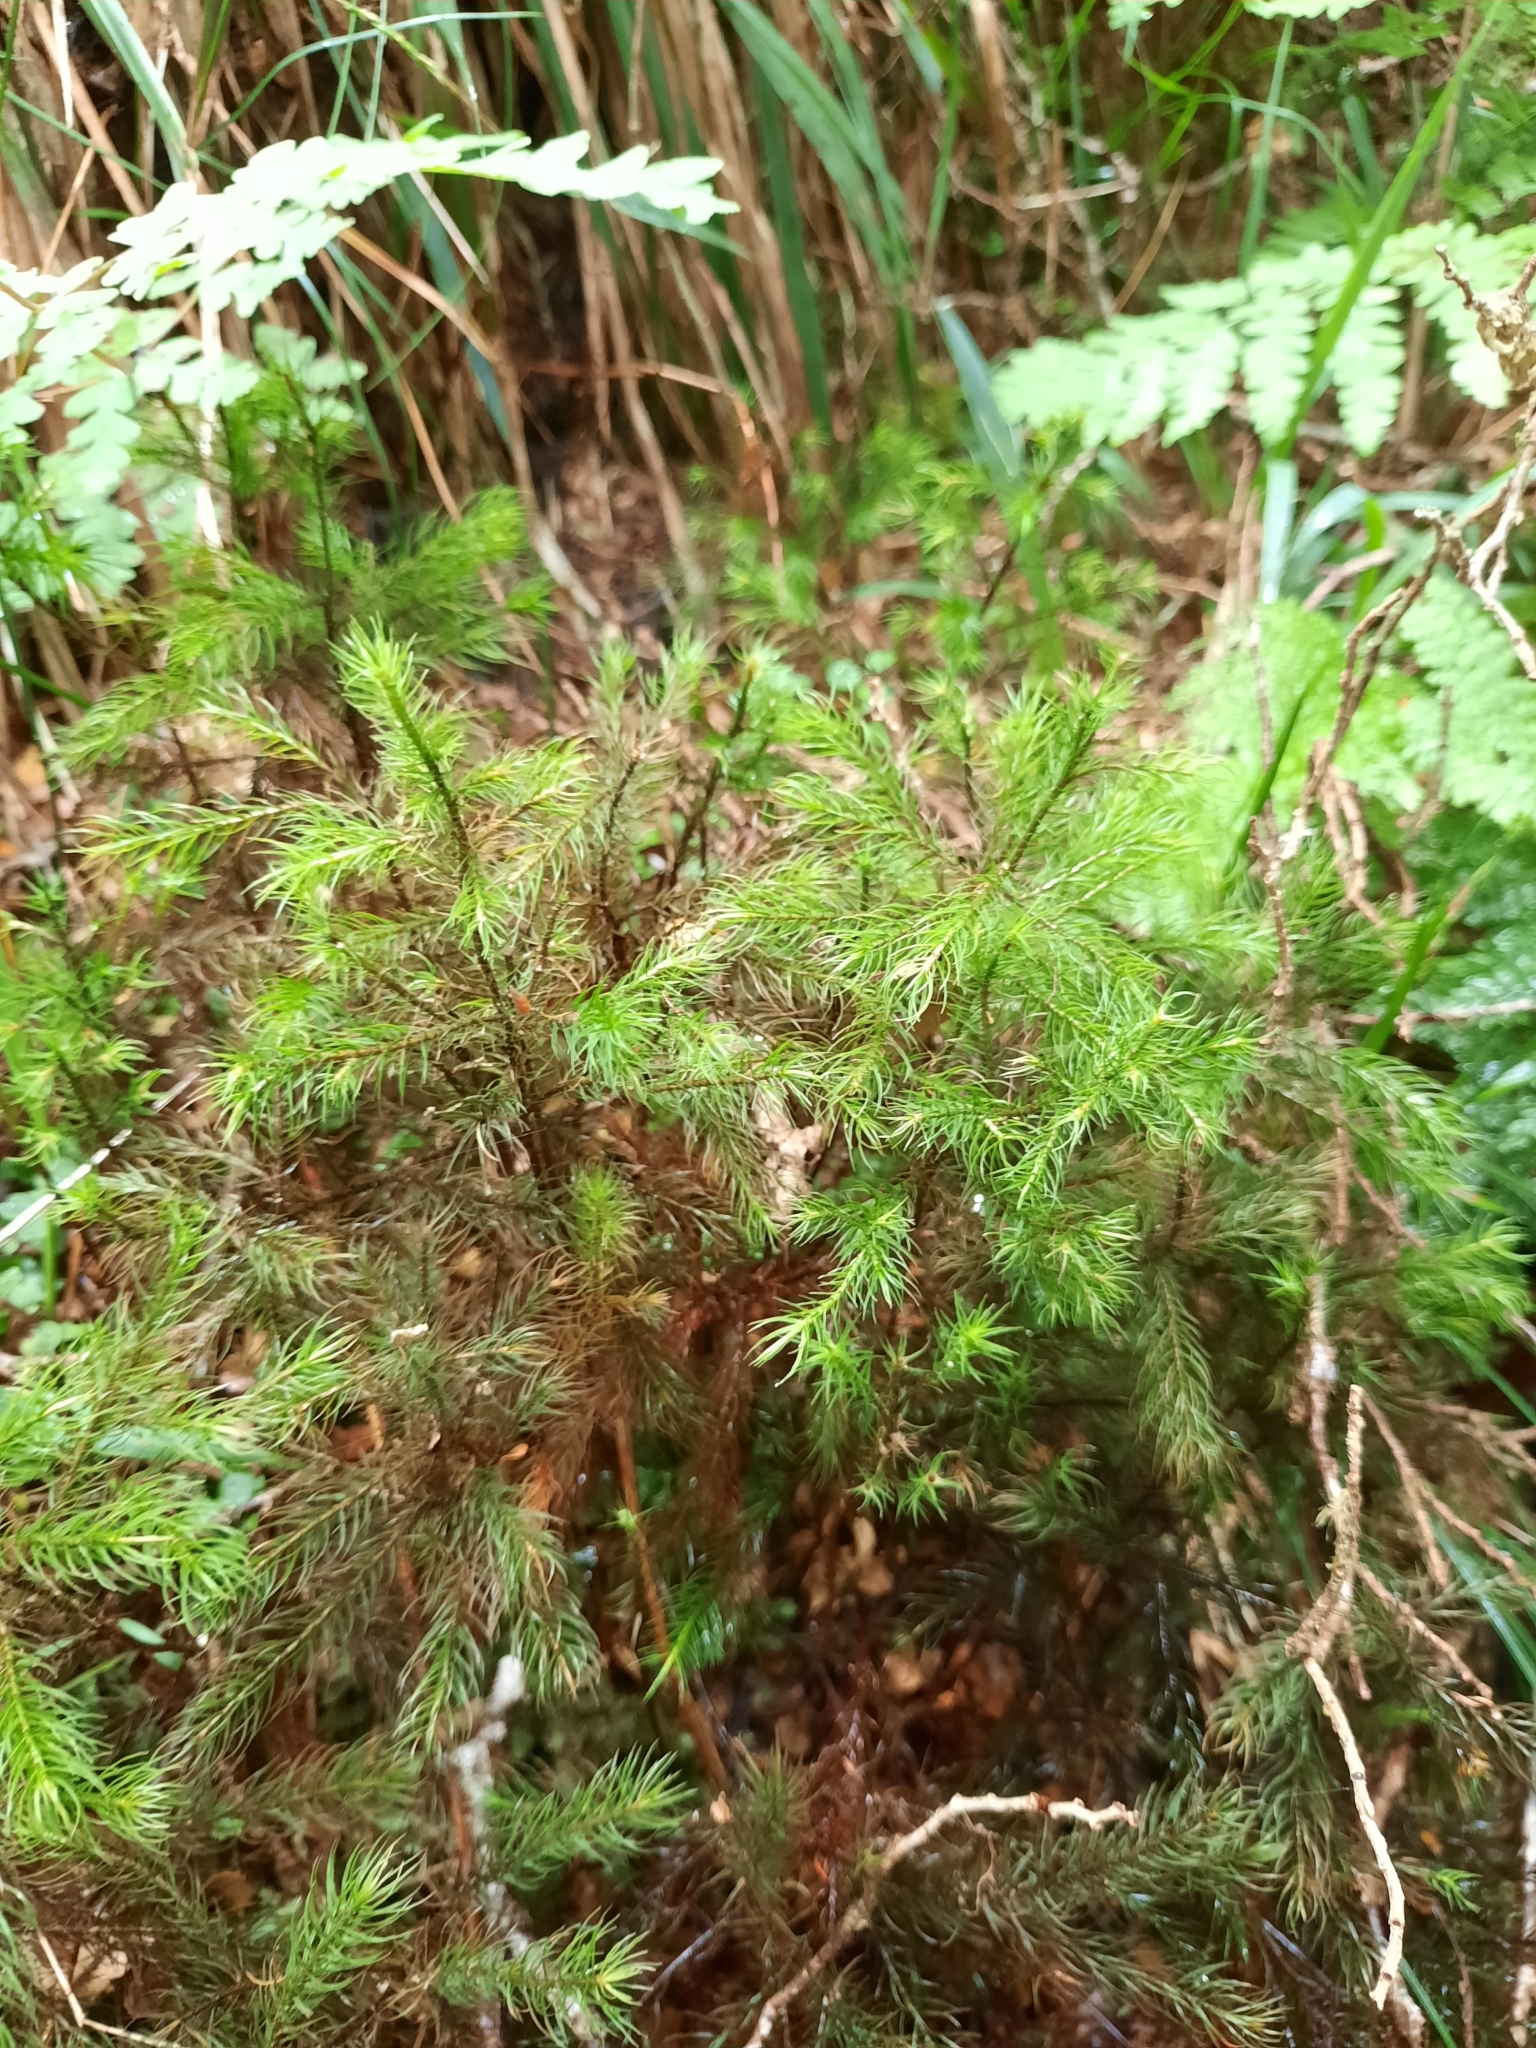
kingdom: Plantae
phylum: Bryophyta
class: Polytrichopsida
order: Polytrichales
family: Polytrichaceae
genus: Dendroligotrichum
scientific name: Dendroligotrichum tongariroense
